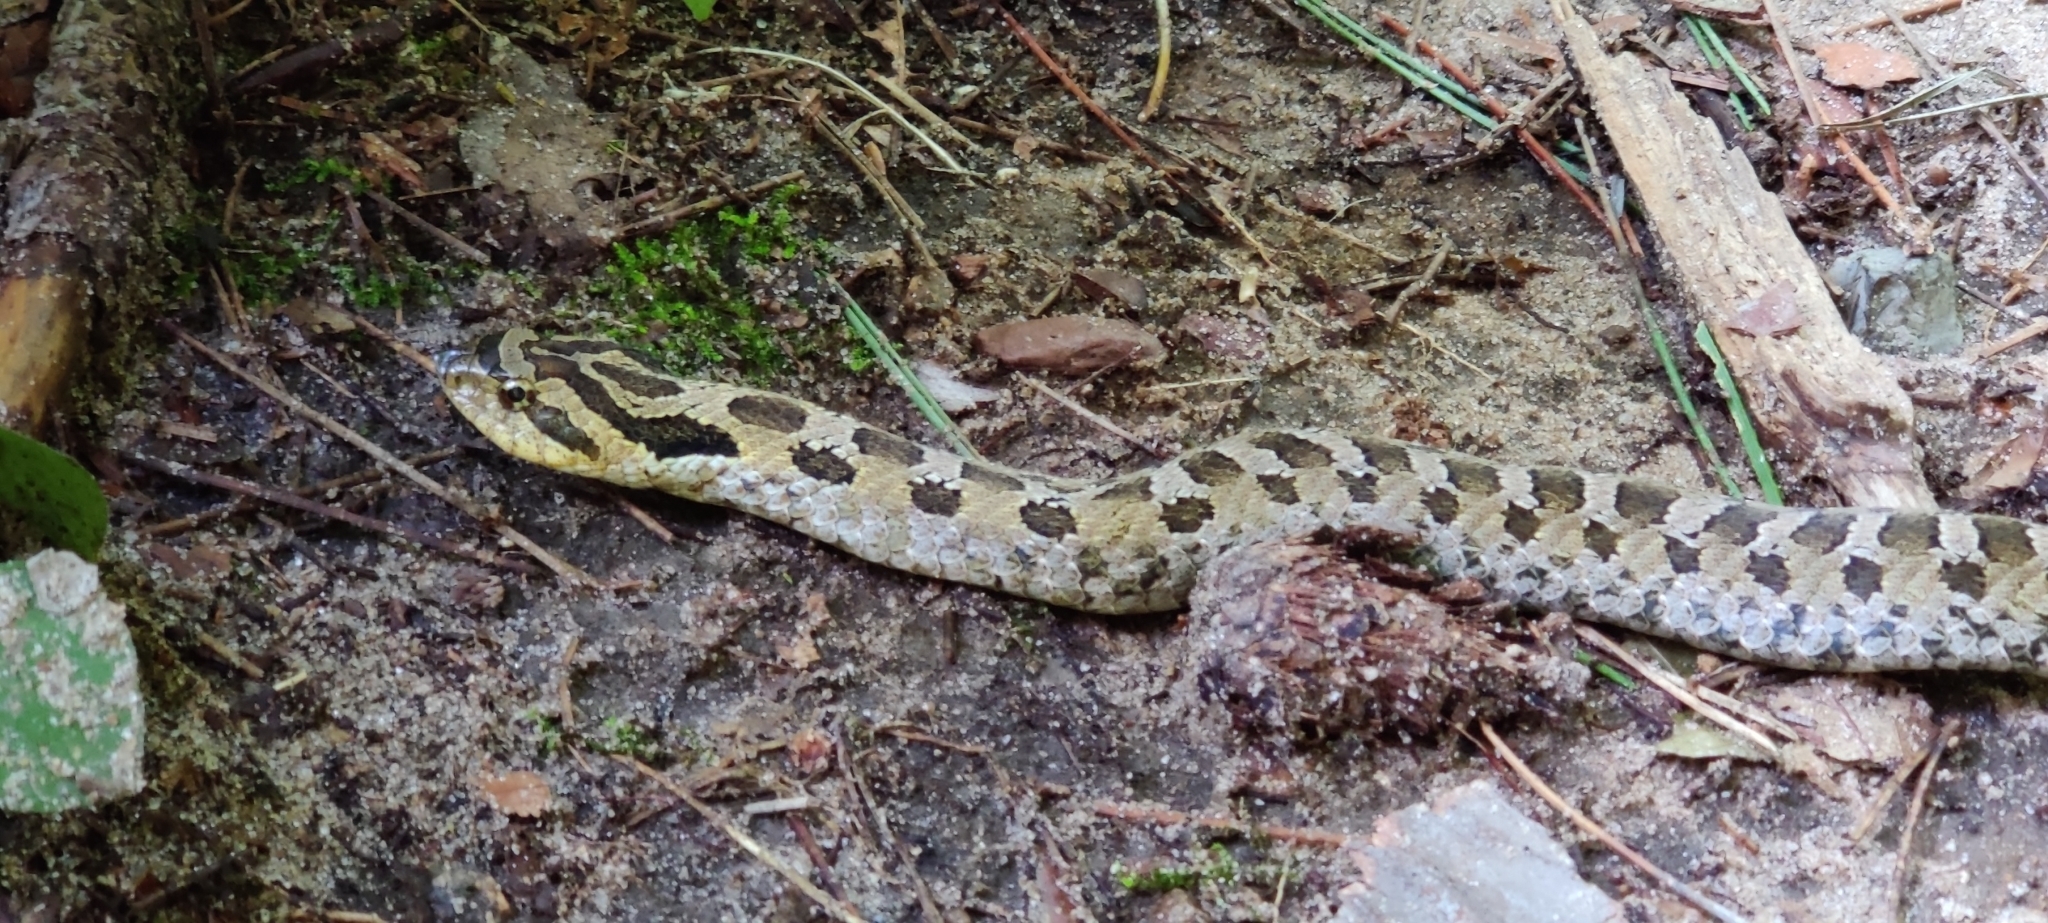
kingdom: Animalia
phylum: Chordata
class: Squamata
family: Colubridae
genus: Heterodon
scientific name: Heterodon platirhinos
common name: Eastern hognose snake
